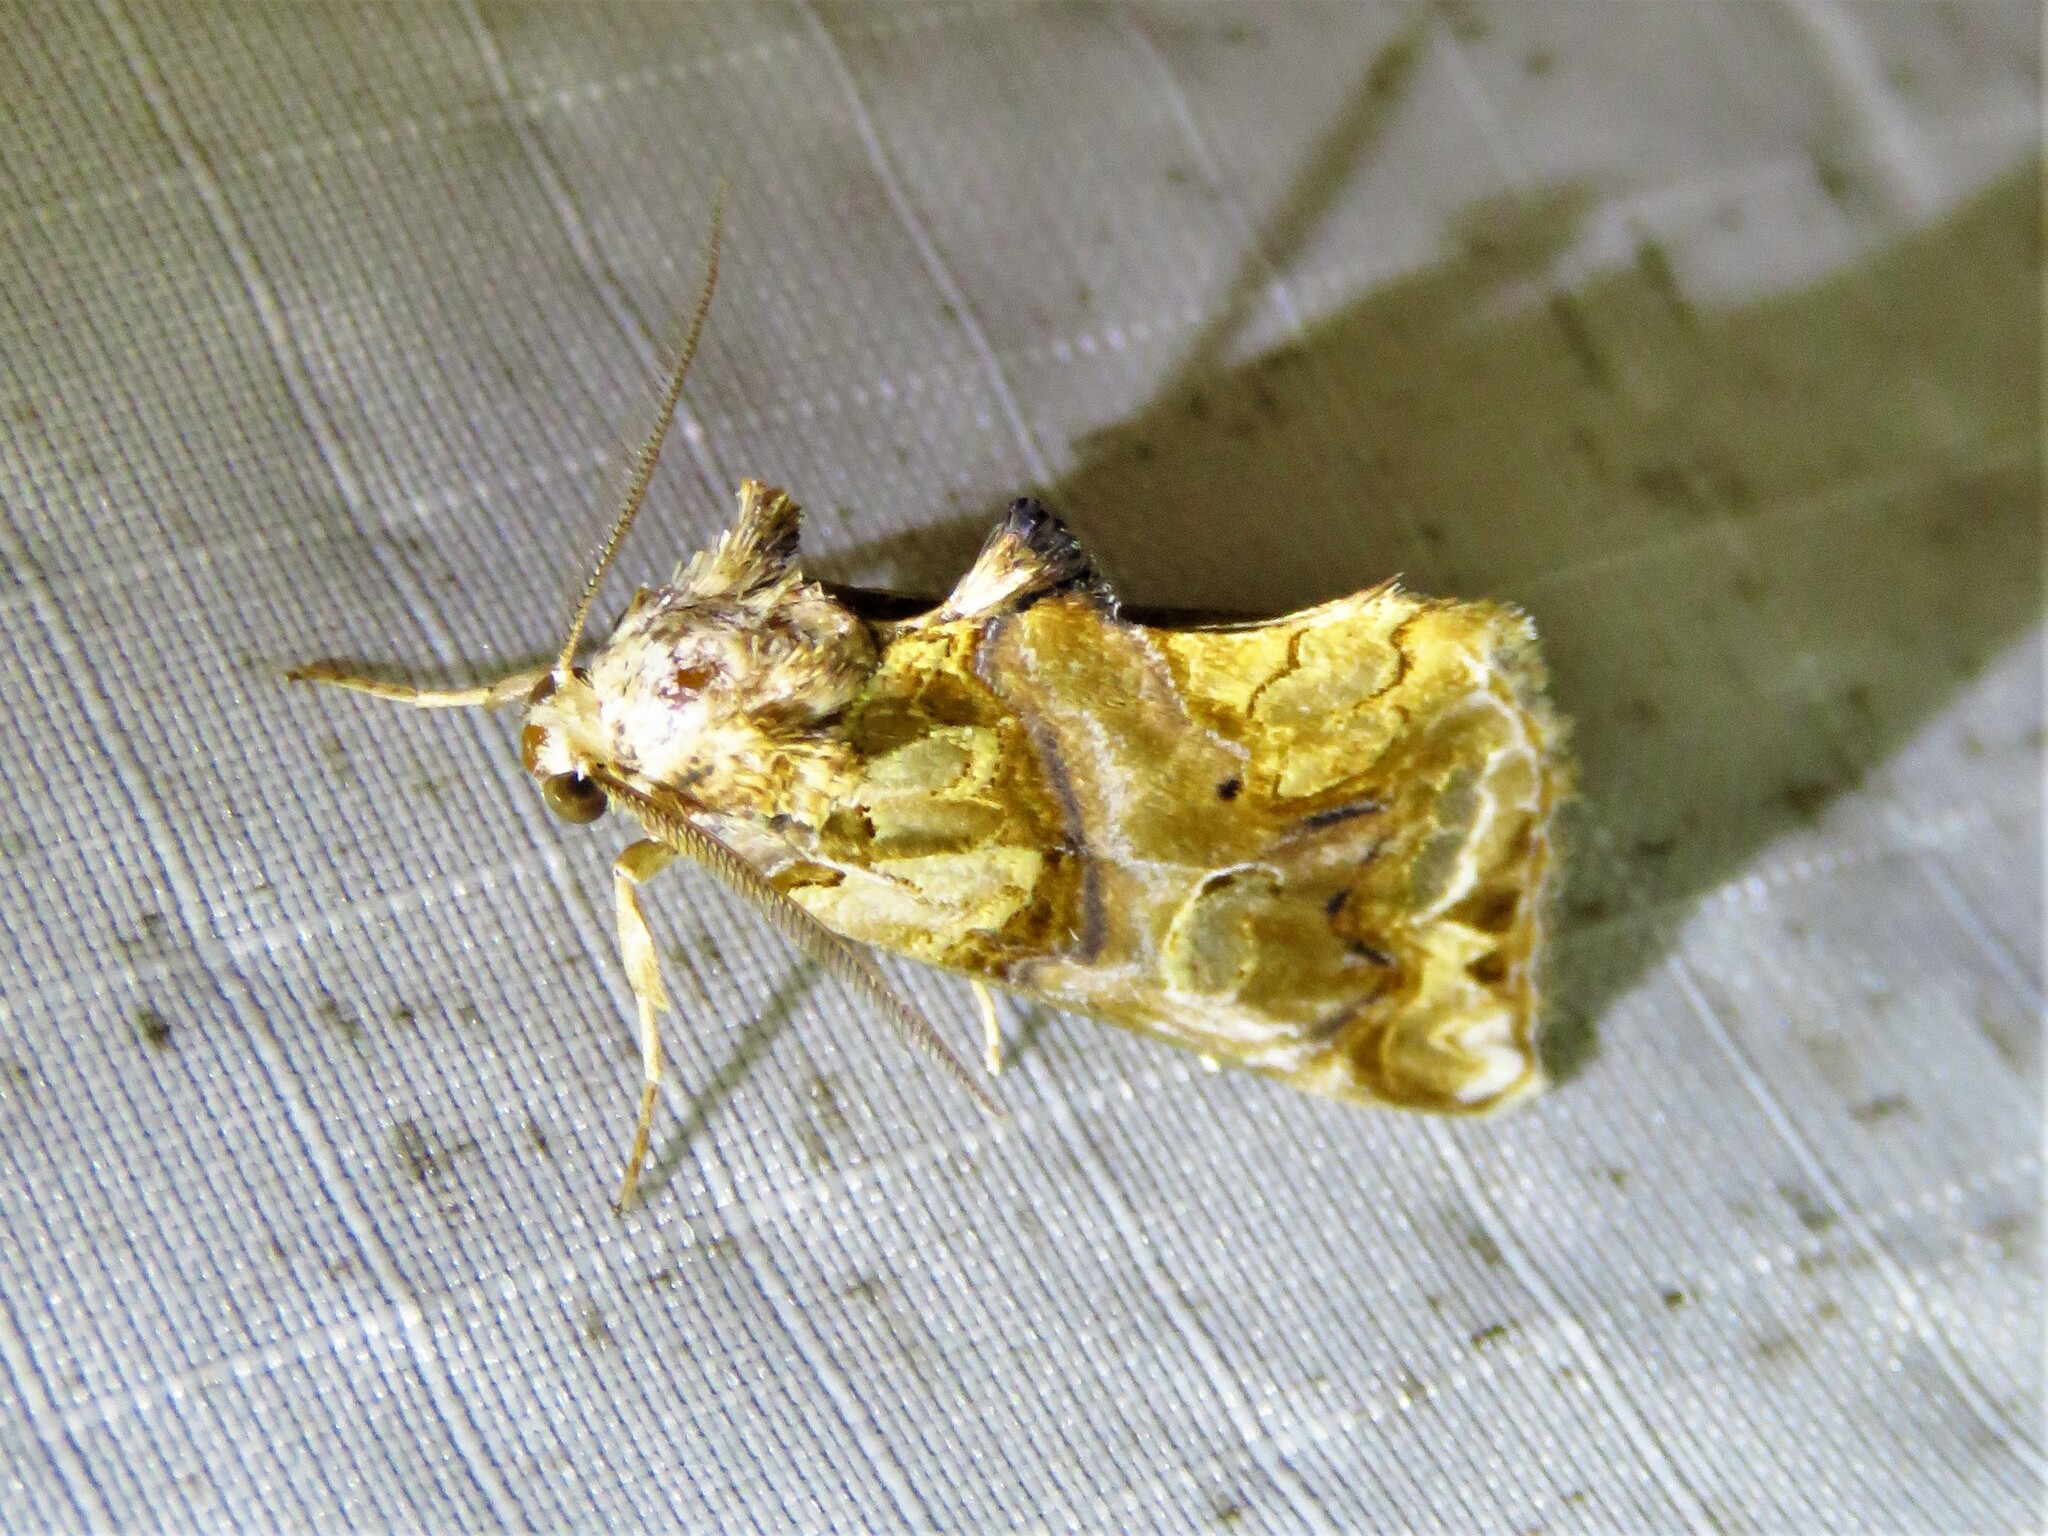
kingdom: Animalia
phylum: Arthropoda
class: Insecta
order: Lepidoptera
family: Erebidae
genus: Plusiodonta
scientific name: Plusiodonta compressipalpis
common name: Moonseed moth
